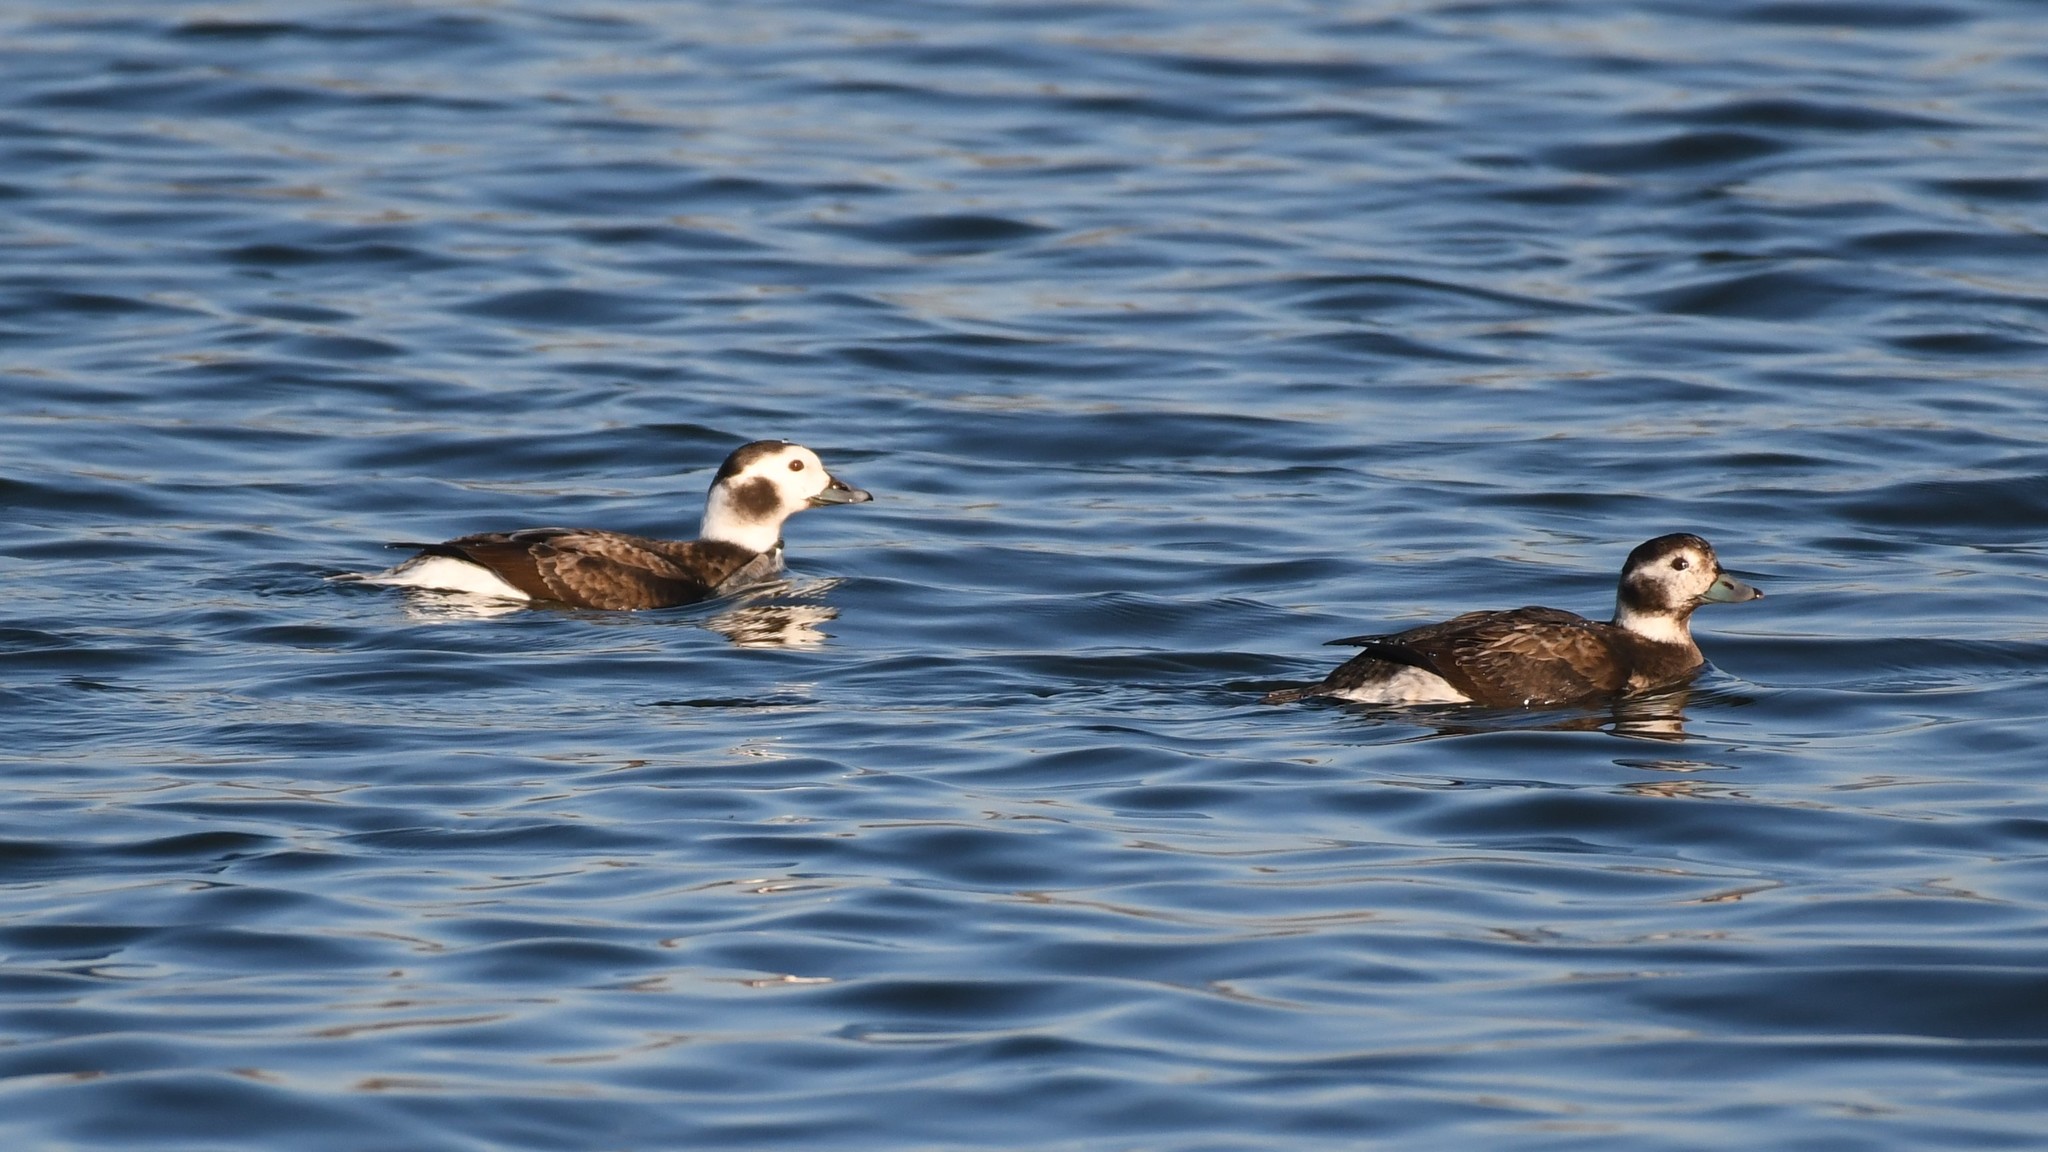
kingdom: Animalia
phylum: Chordata
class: Aves
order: Anseriformes
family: Anatidae
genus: Clangula
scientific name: Clangula hyemalis
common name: Long-tailed duck
